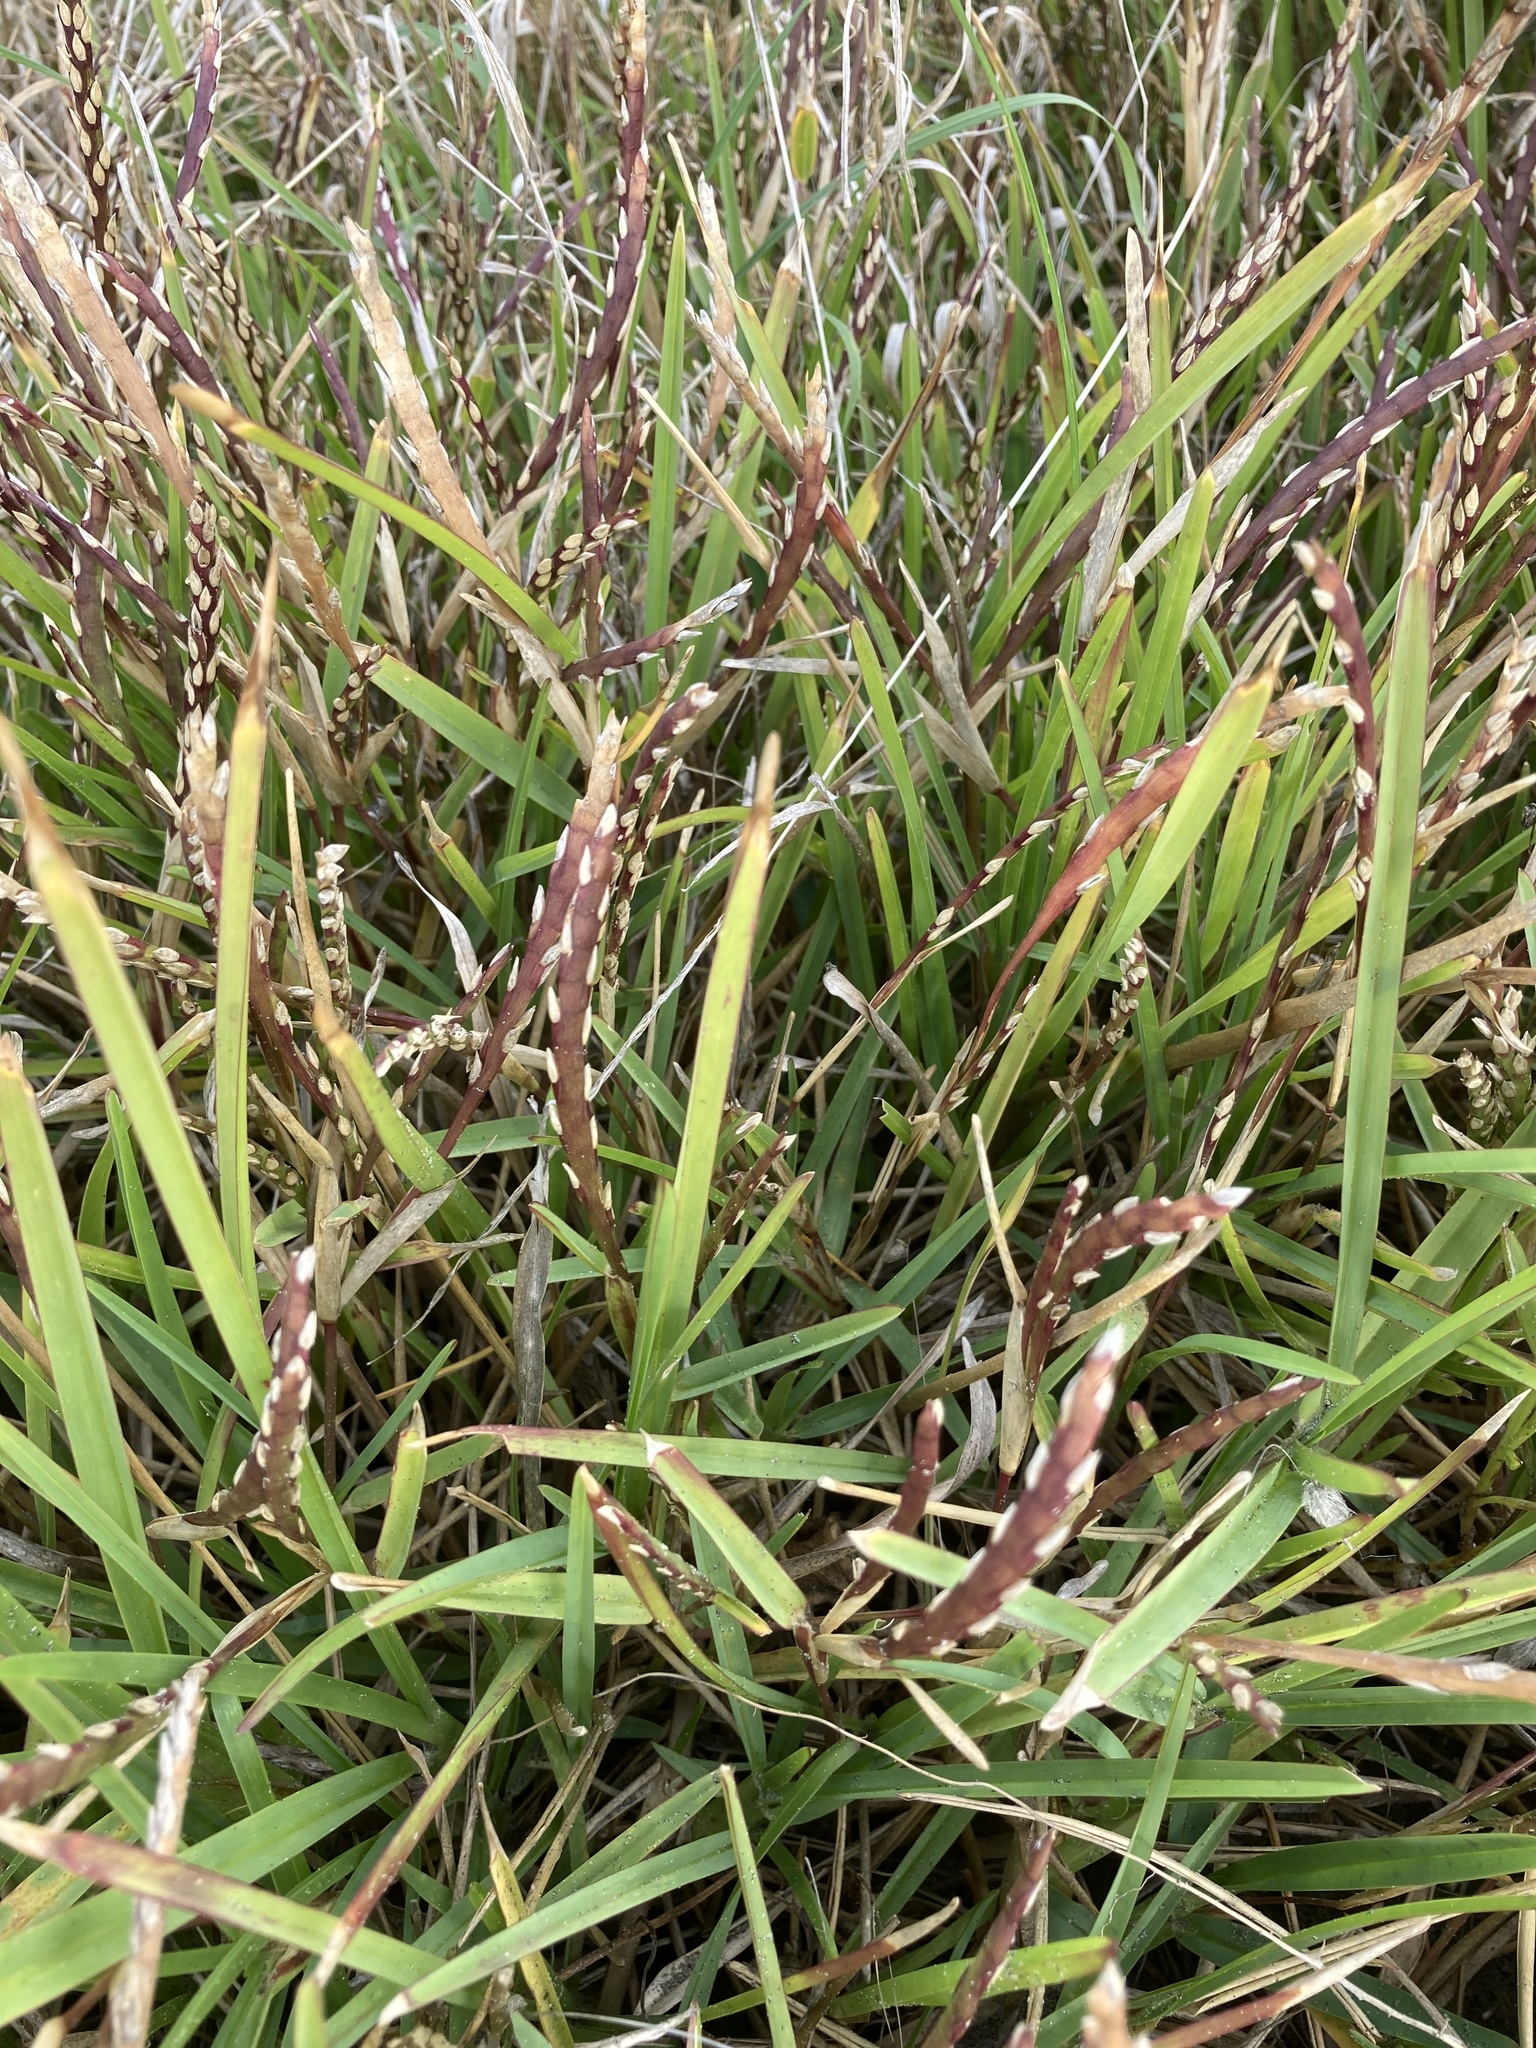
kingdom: Plantae
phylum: Tracheophyta
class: Liliopsida
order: Poales
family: Poaceae
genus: Stenotaphrum
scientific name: Stenotaphrum secundatum
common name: St. augustine grass
